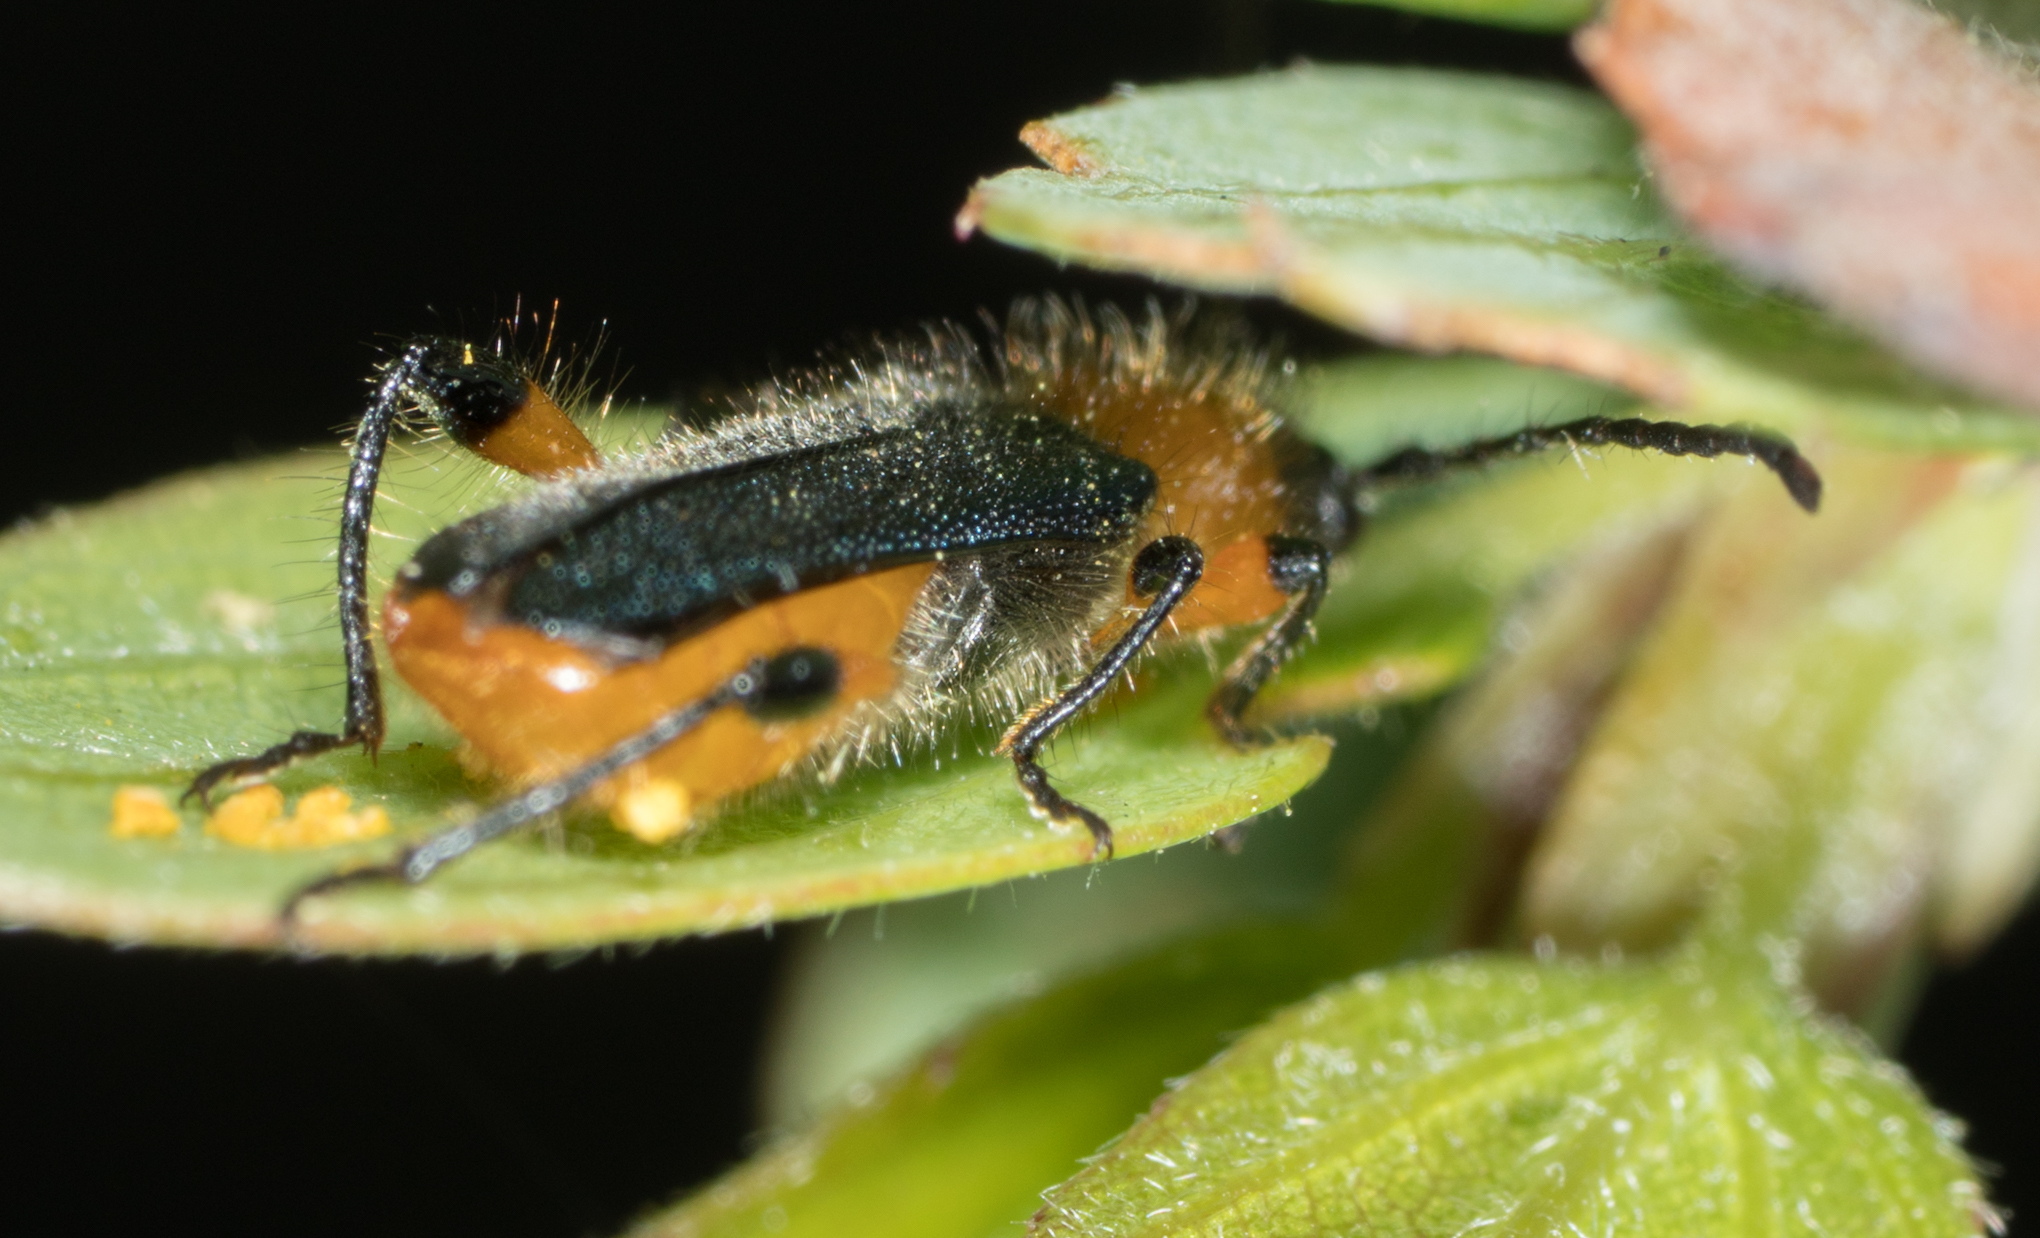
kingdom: Animalia
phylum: Arthropoda
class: Insecta
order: Coleoptera
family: Cerambycidae
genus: Callimus
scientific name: Callimus cyanipennis
